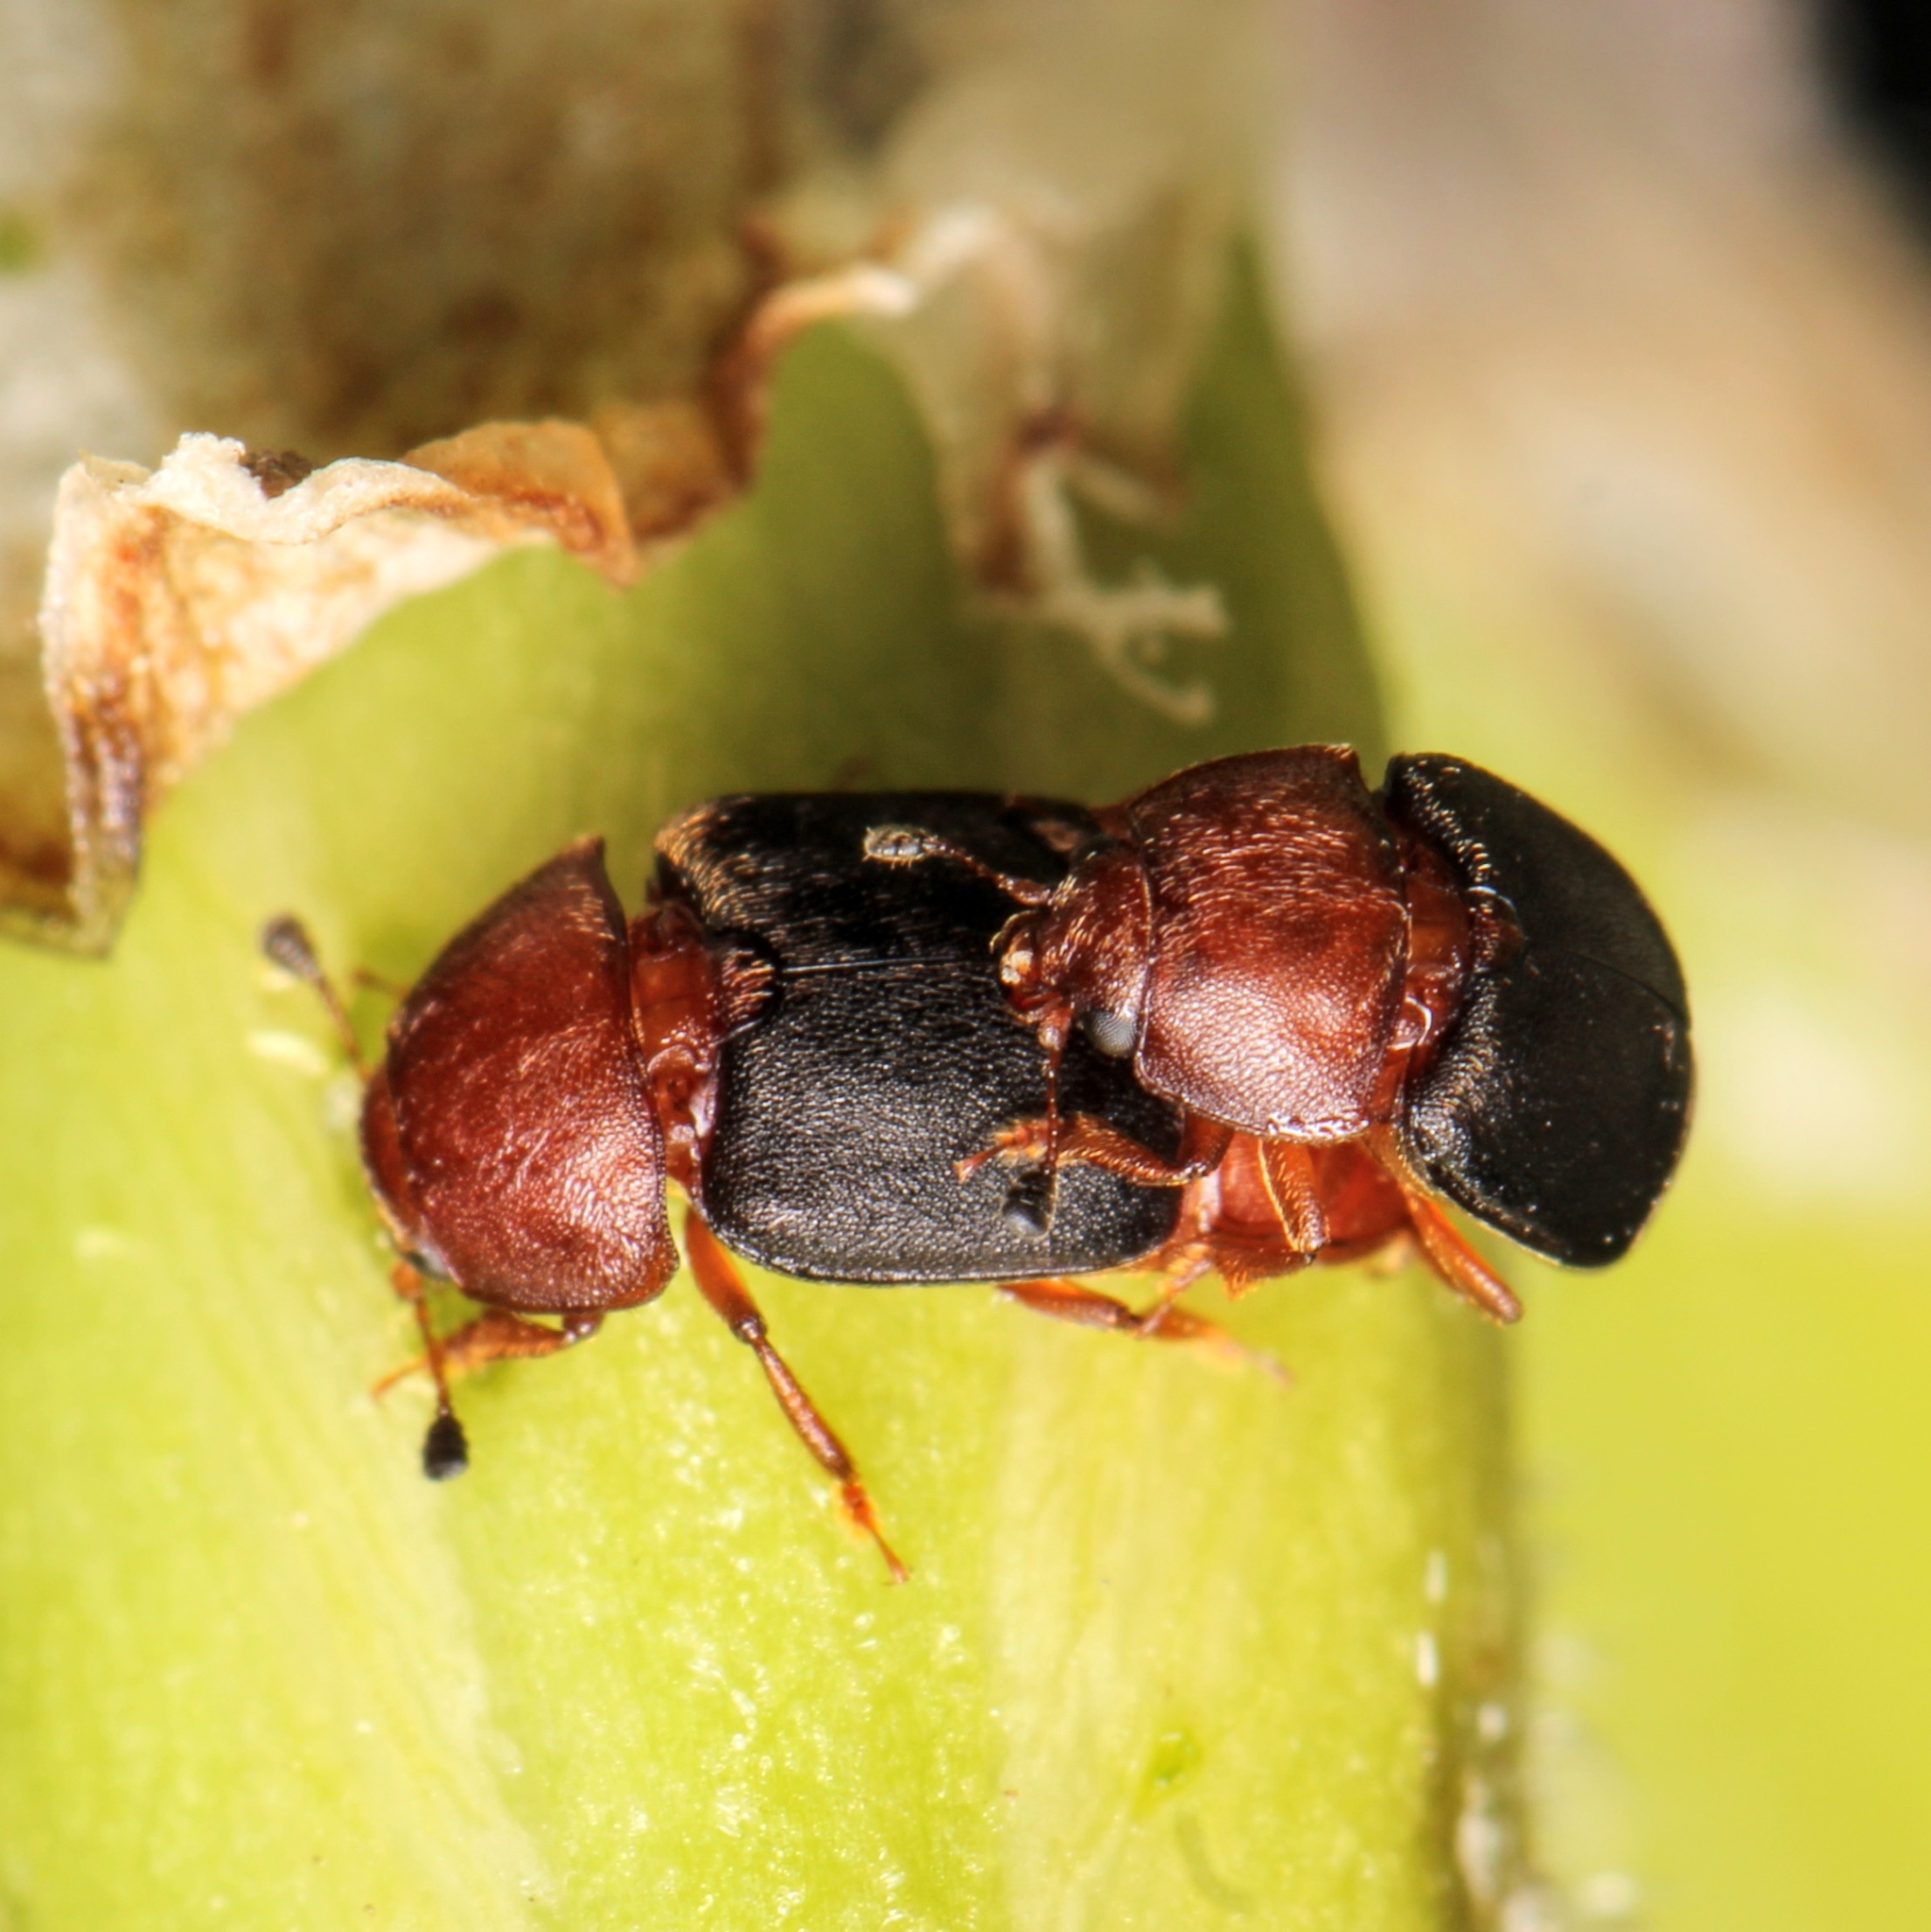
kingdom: Animalia
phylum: Arthropoda
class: Insecta
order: Coleoptera
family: Nitidulidae
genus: Carpophilus
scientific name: Carpophilus
